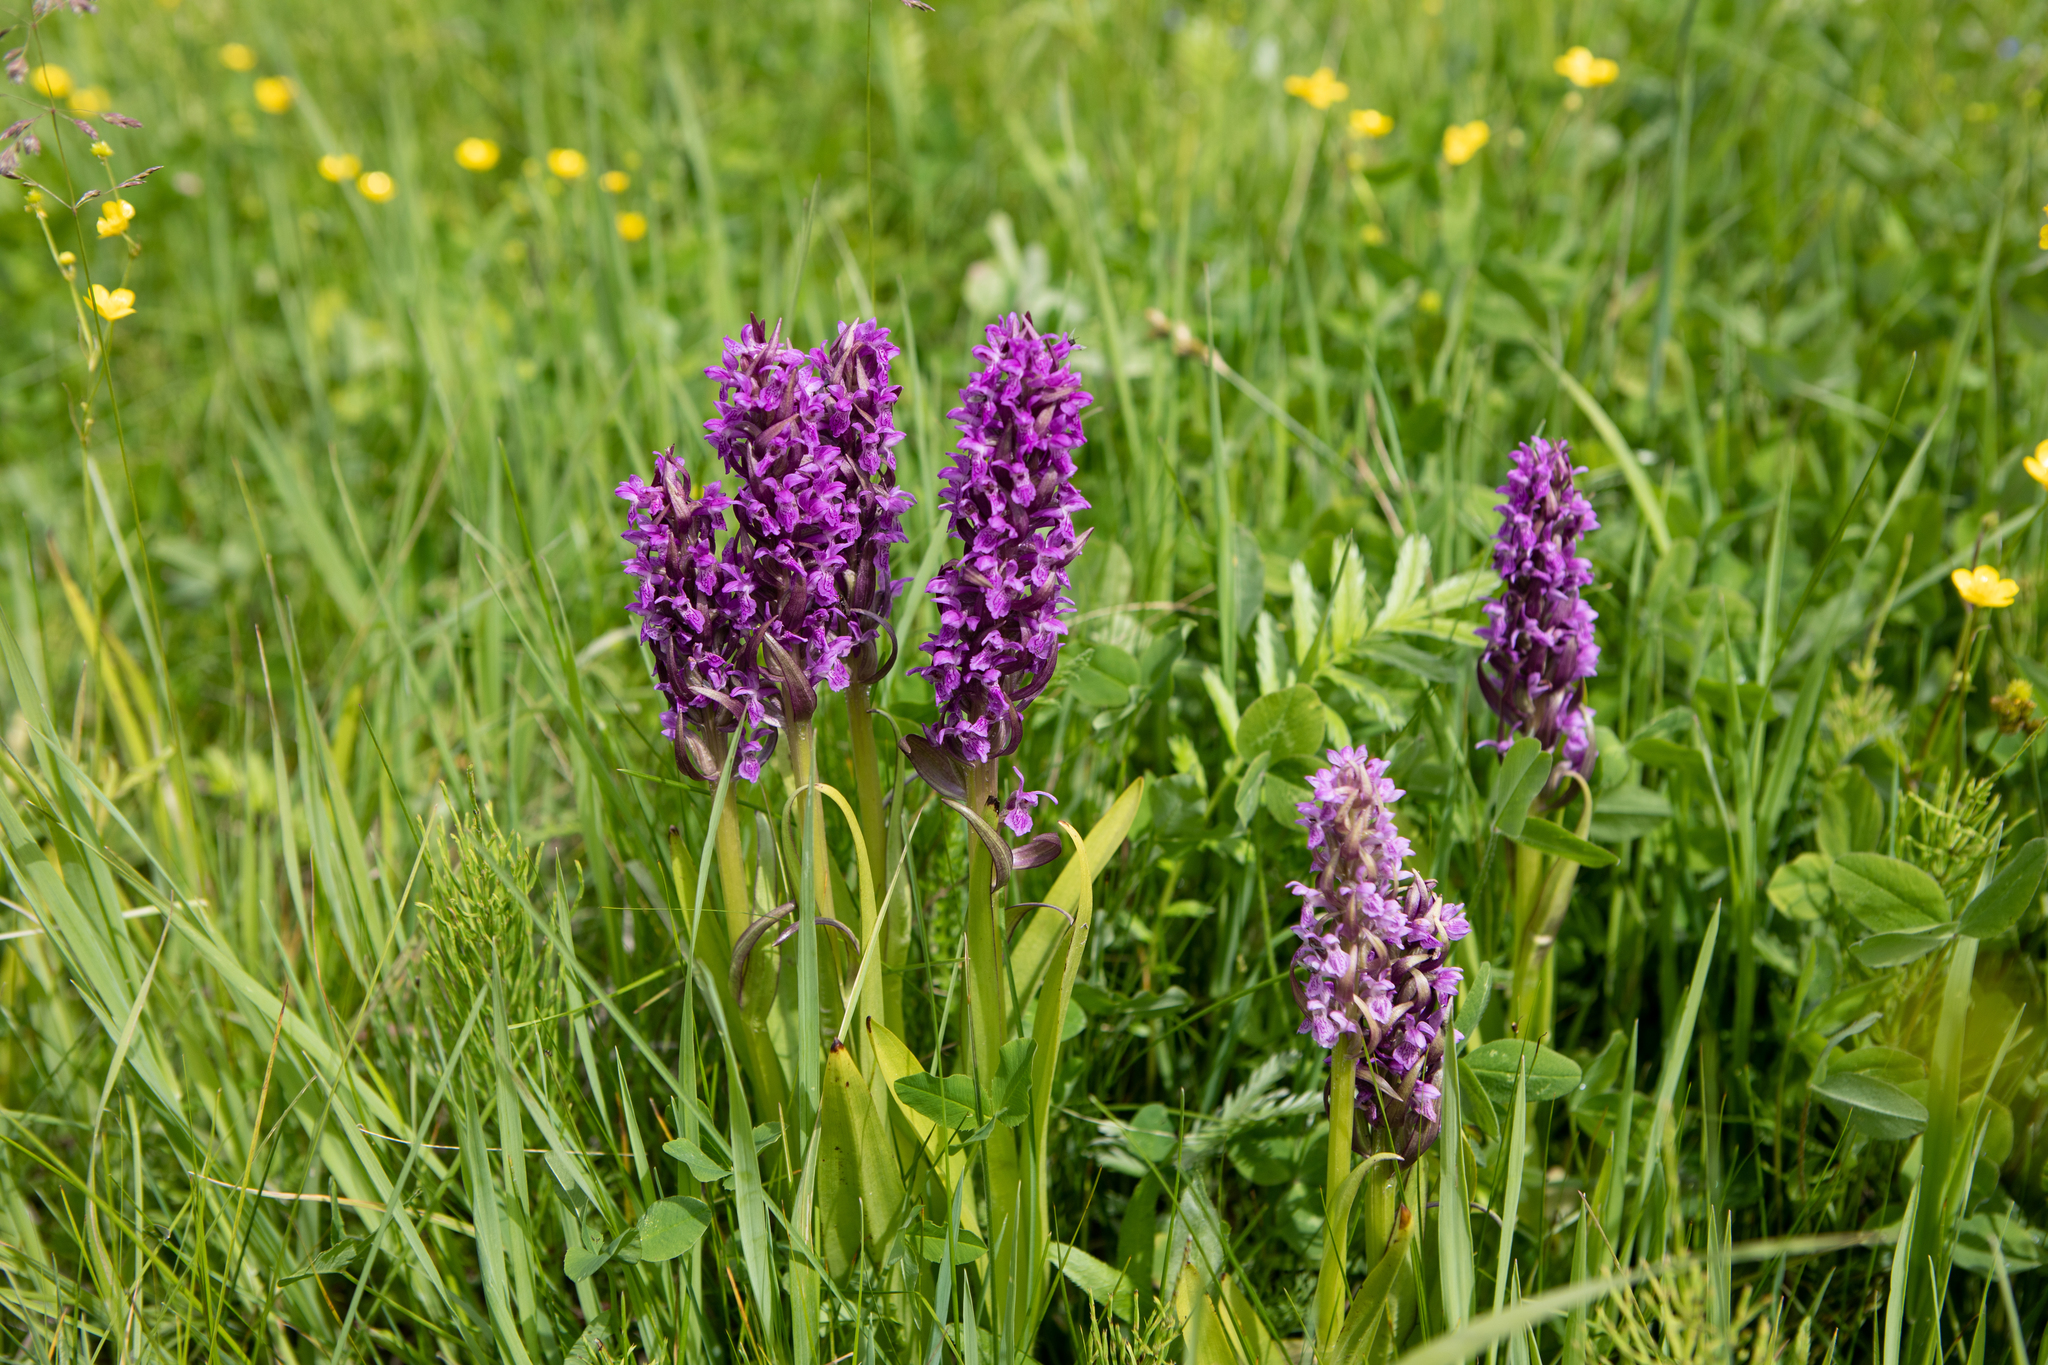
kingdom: Plantae
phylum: Tracheophyta
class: Liliopsida
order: Asparagales
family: Orchidaceae
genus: Dactylorhiza
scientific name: Dactylorhiza incarnata
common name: Early marsh-orchid
